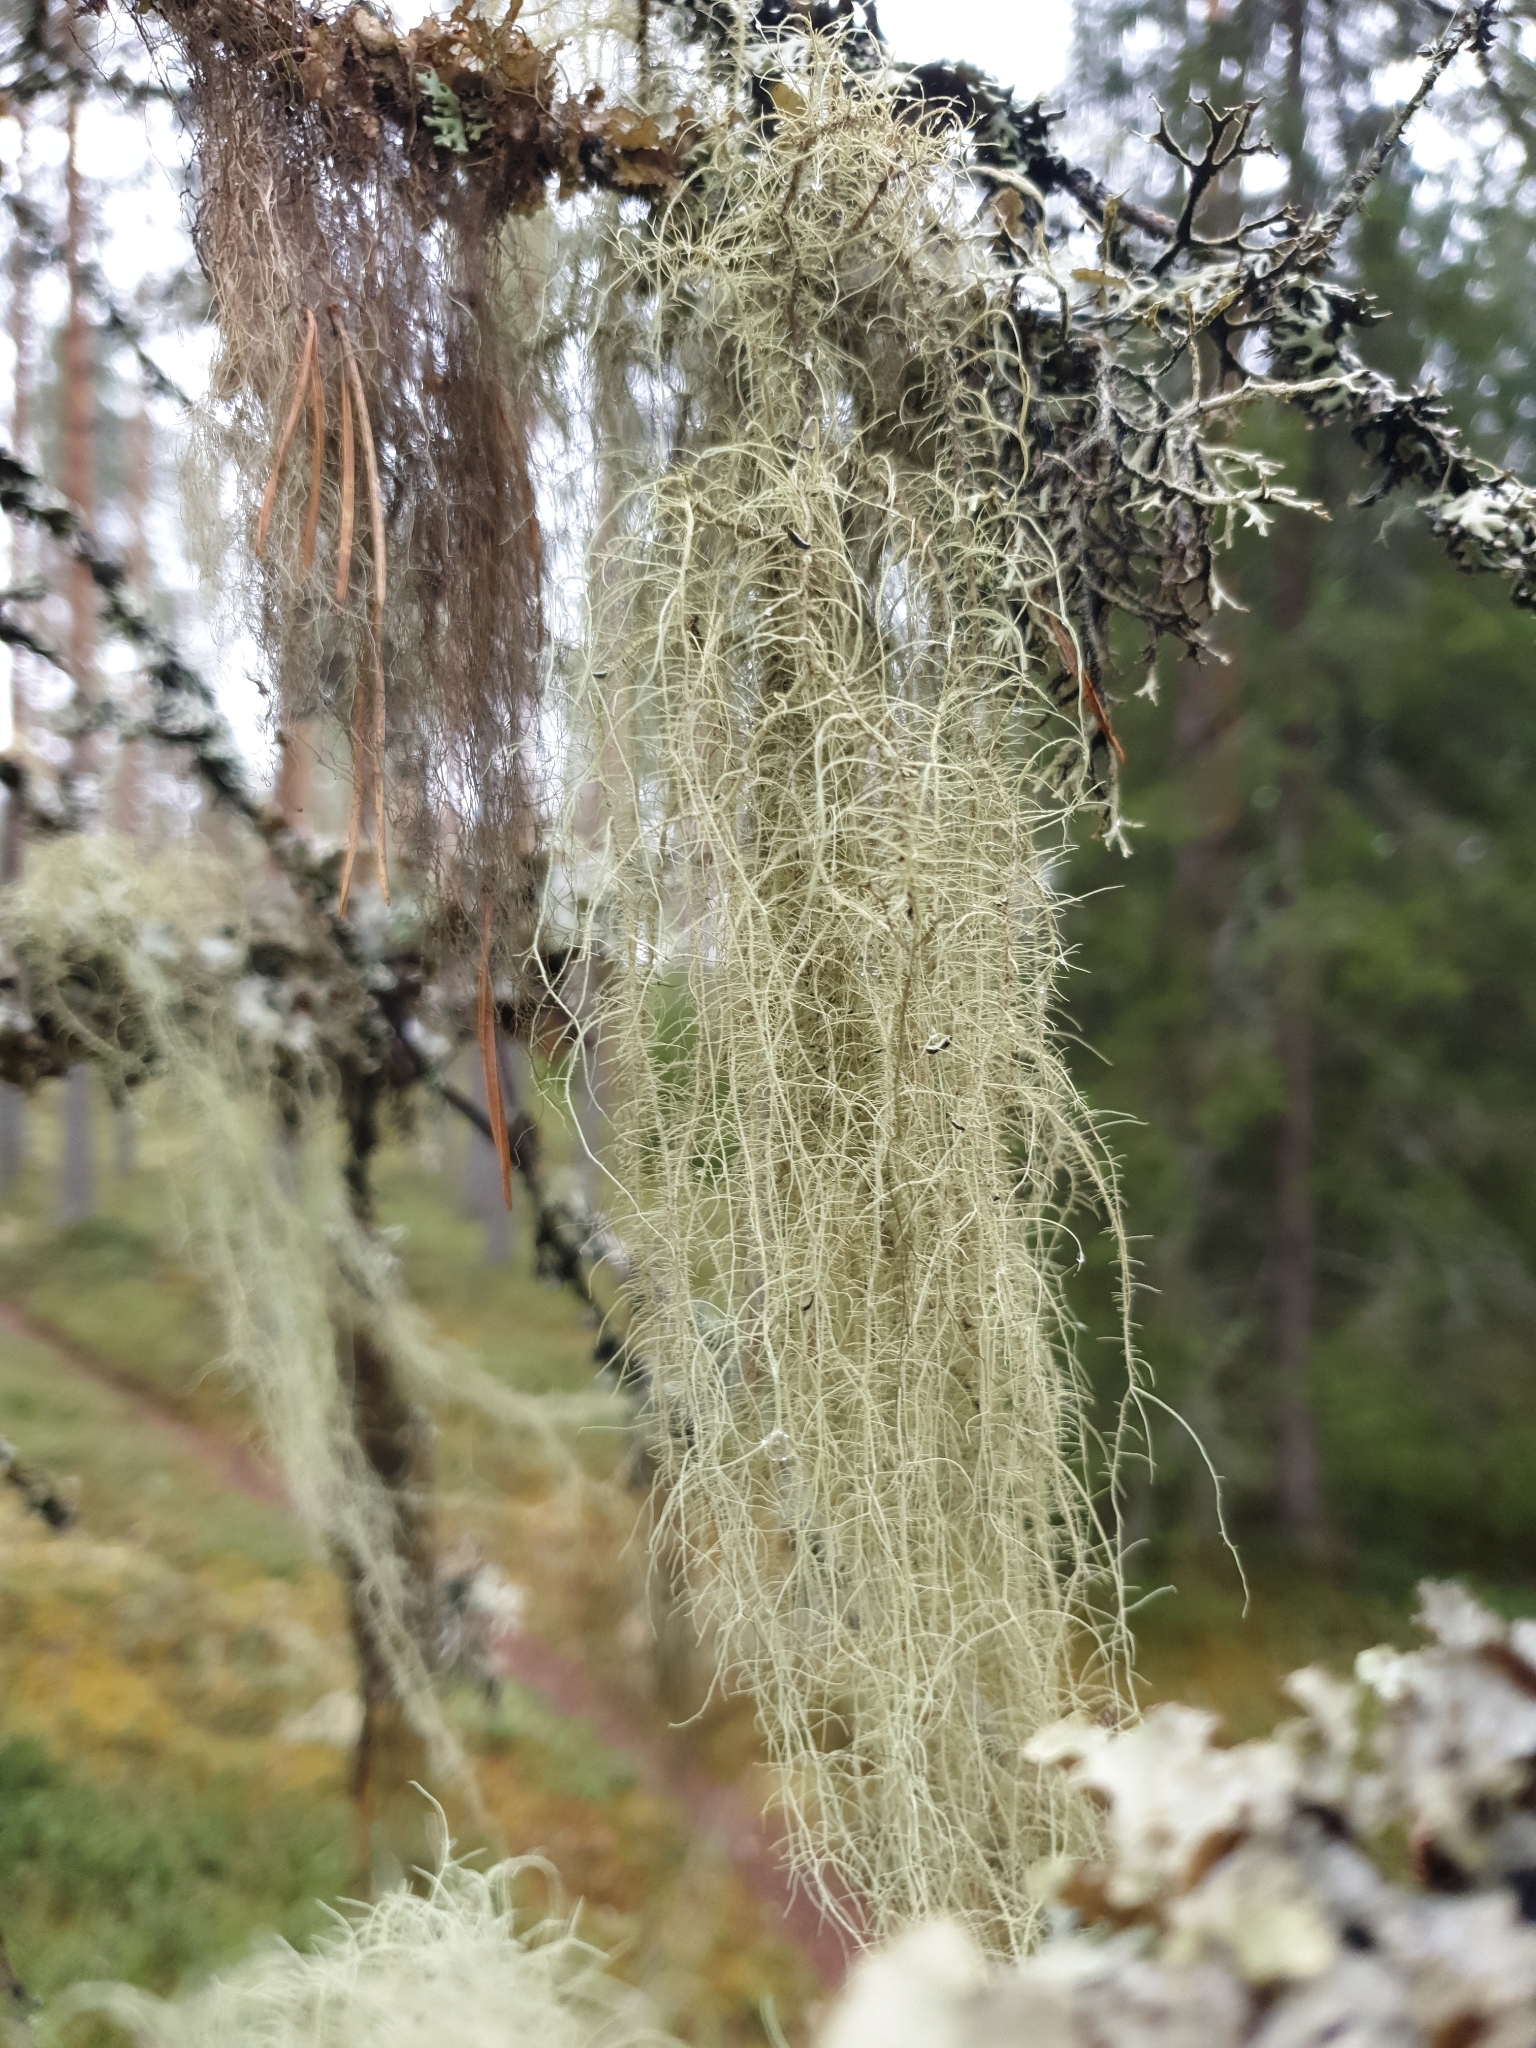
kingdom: Fungi
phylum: Ascomycota
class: Lecanoromycetes
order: Lecanorales
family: Parmeliaceae
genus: Usnea
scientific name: Usnea dasopoga
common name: Fishbone beard lichen
